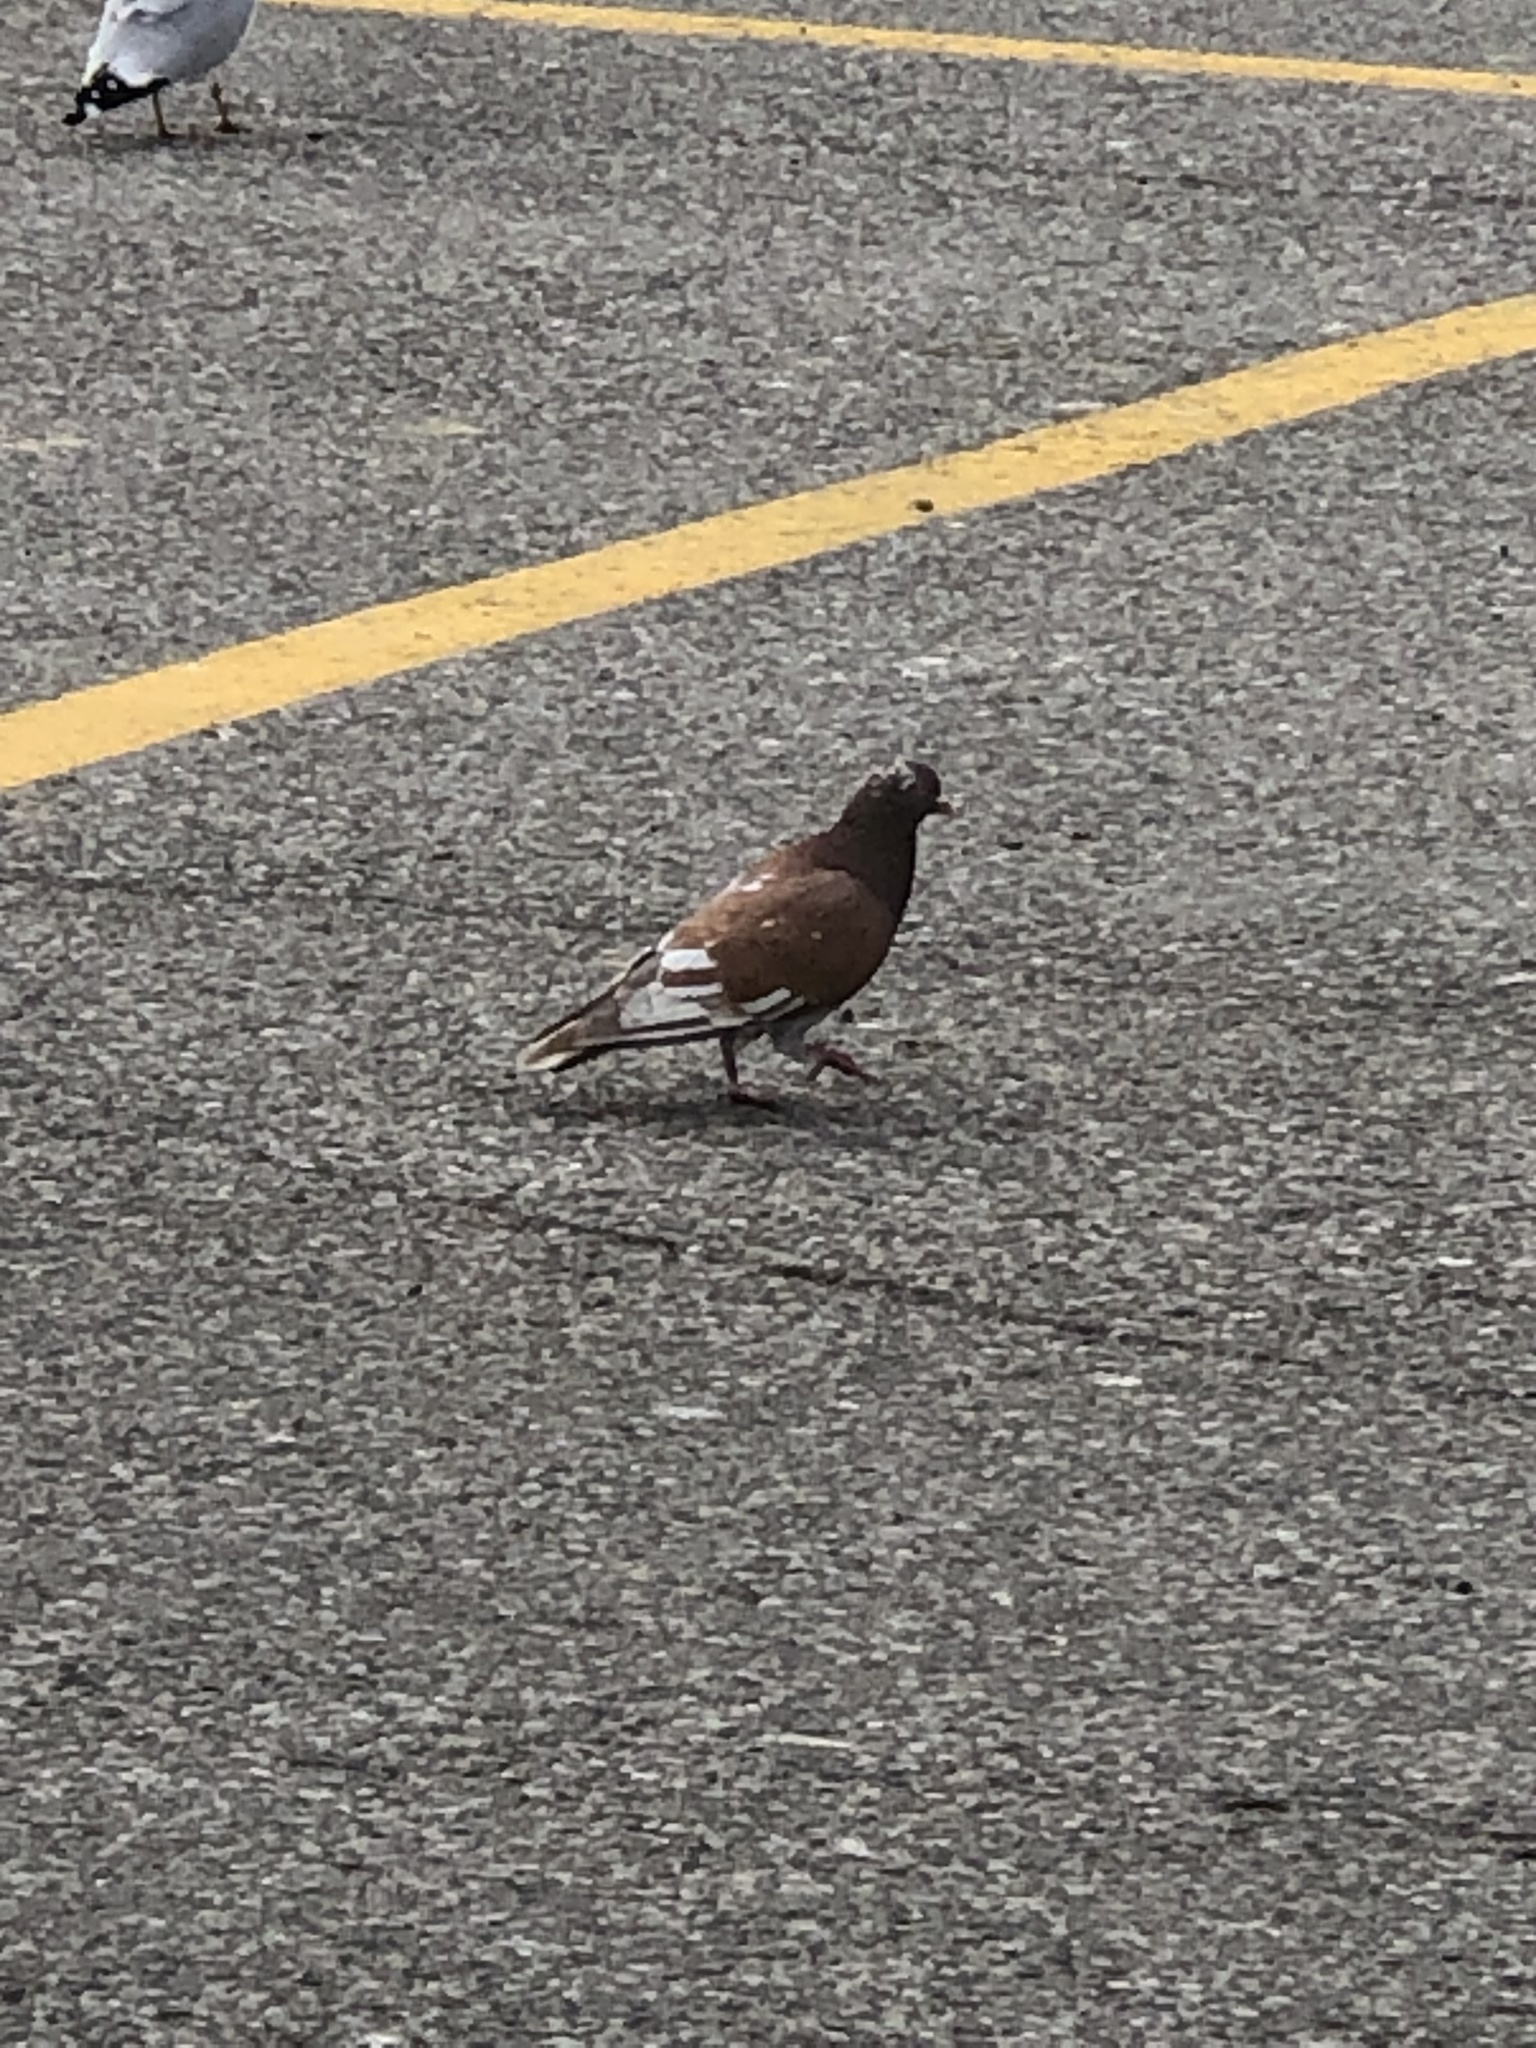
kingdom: Animalia
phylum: Chordata
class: Aves
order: Columbiformes
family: Columbidae
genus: Columba
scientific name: Columba livia
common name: Rock pigeon
